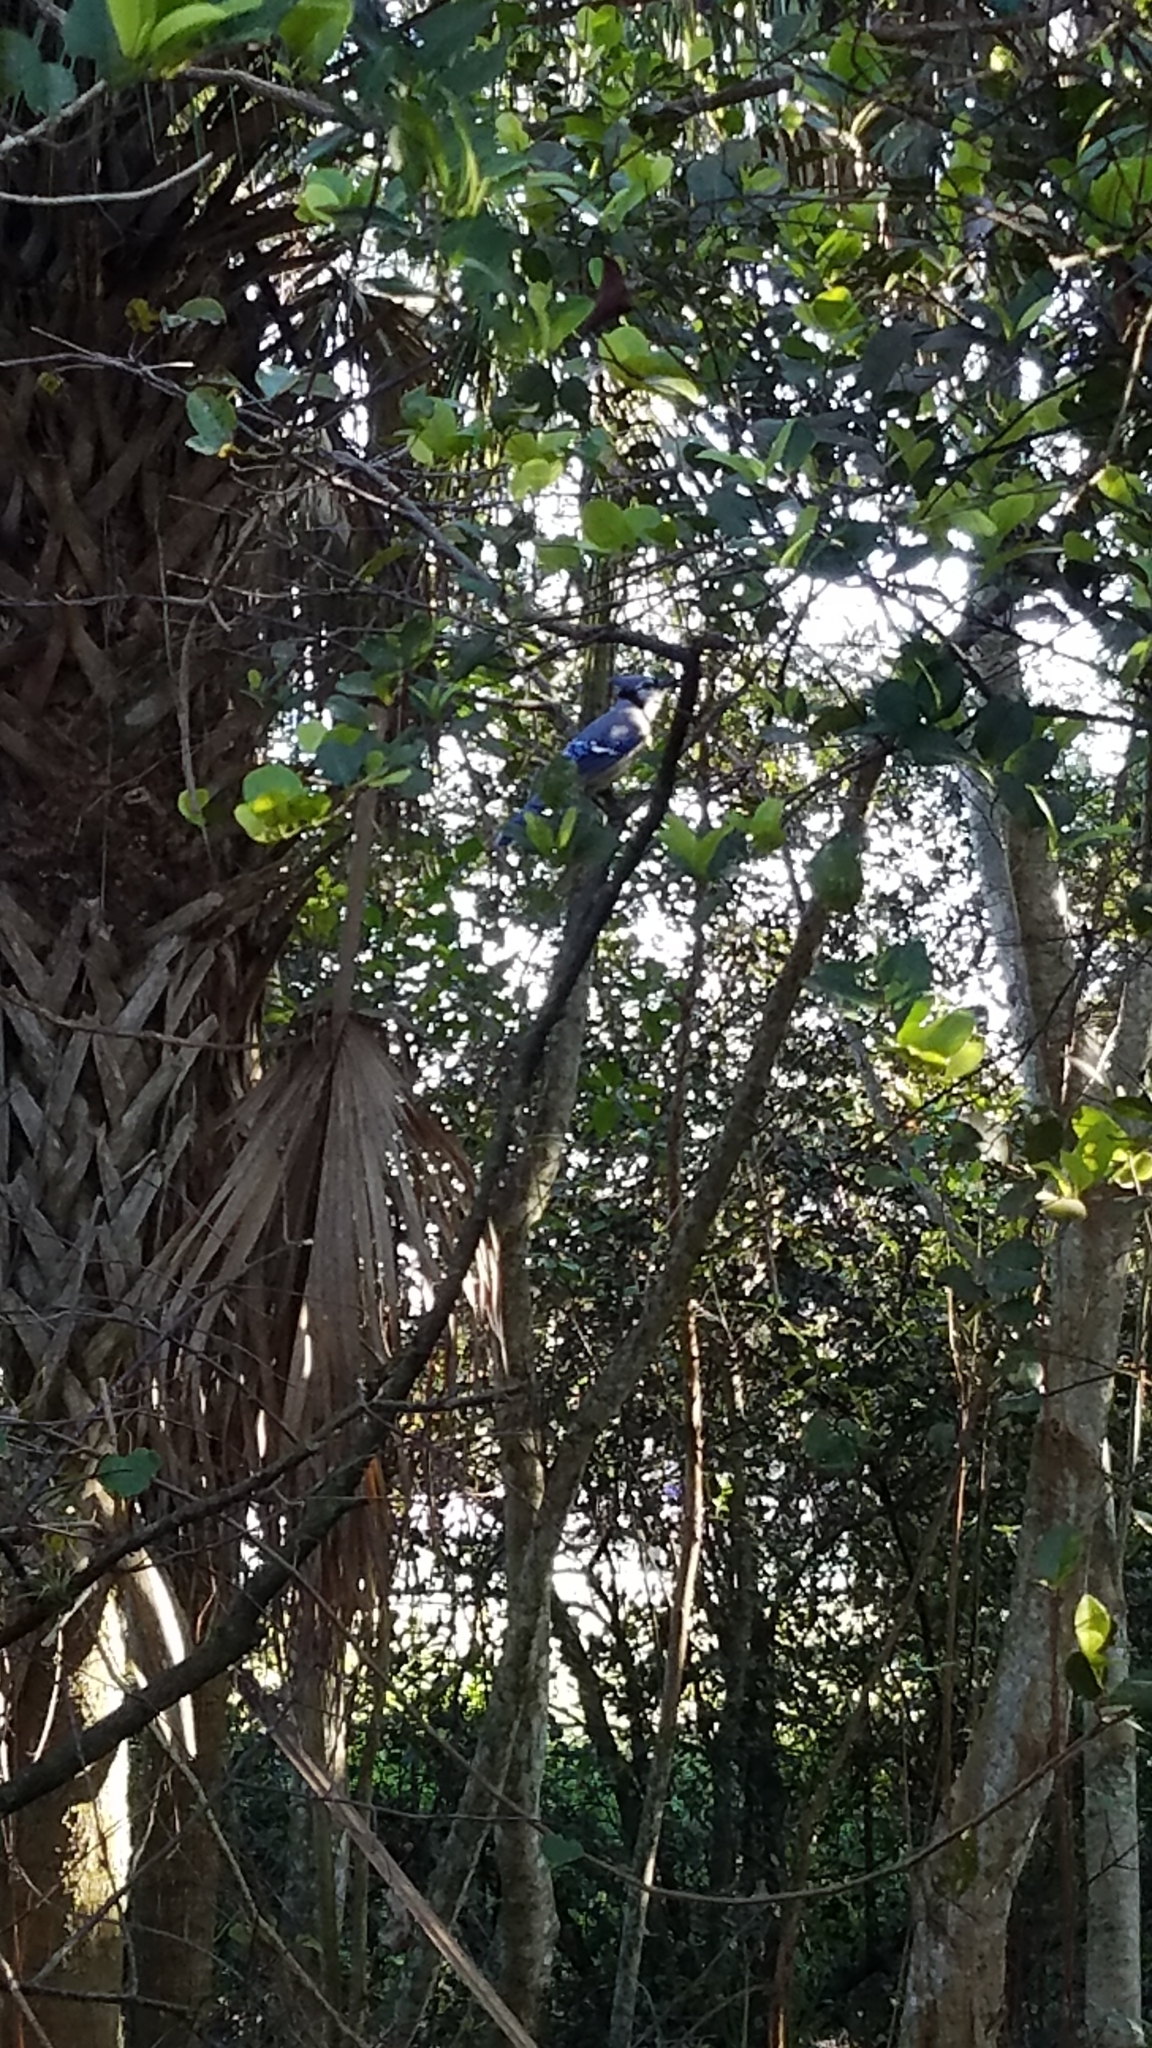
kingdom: Animalia
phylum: Chordata
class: Aves
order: Passeriformes
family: Corvidae
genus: Cyanocitta
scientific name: Cyanocitta cristata
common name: Blue jay
